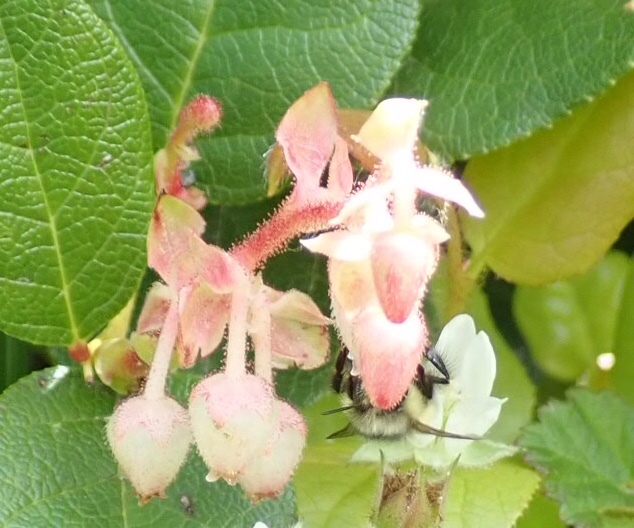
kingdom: Plantae
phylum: Tracheophyta
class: Magnoliopsida
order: Ericales
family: Ericaceae
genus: Gaultheria
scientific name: Gaultheria shallon
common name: Shallon
